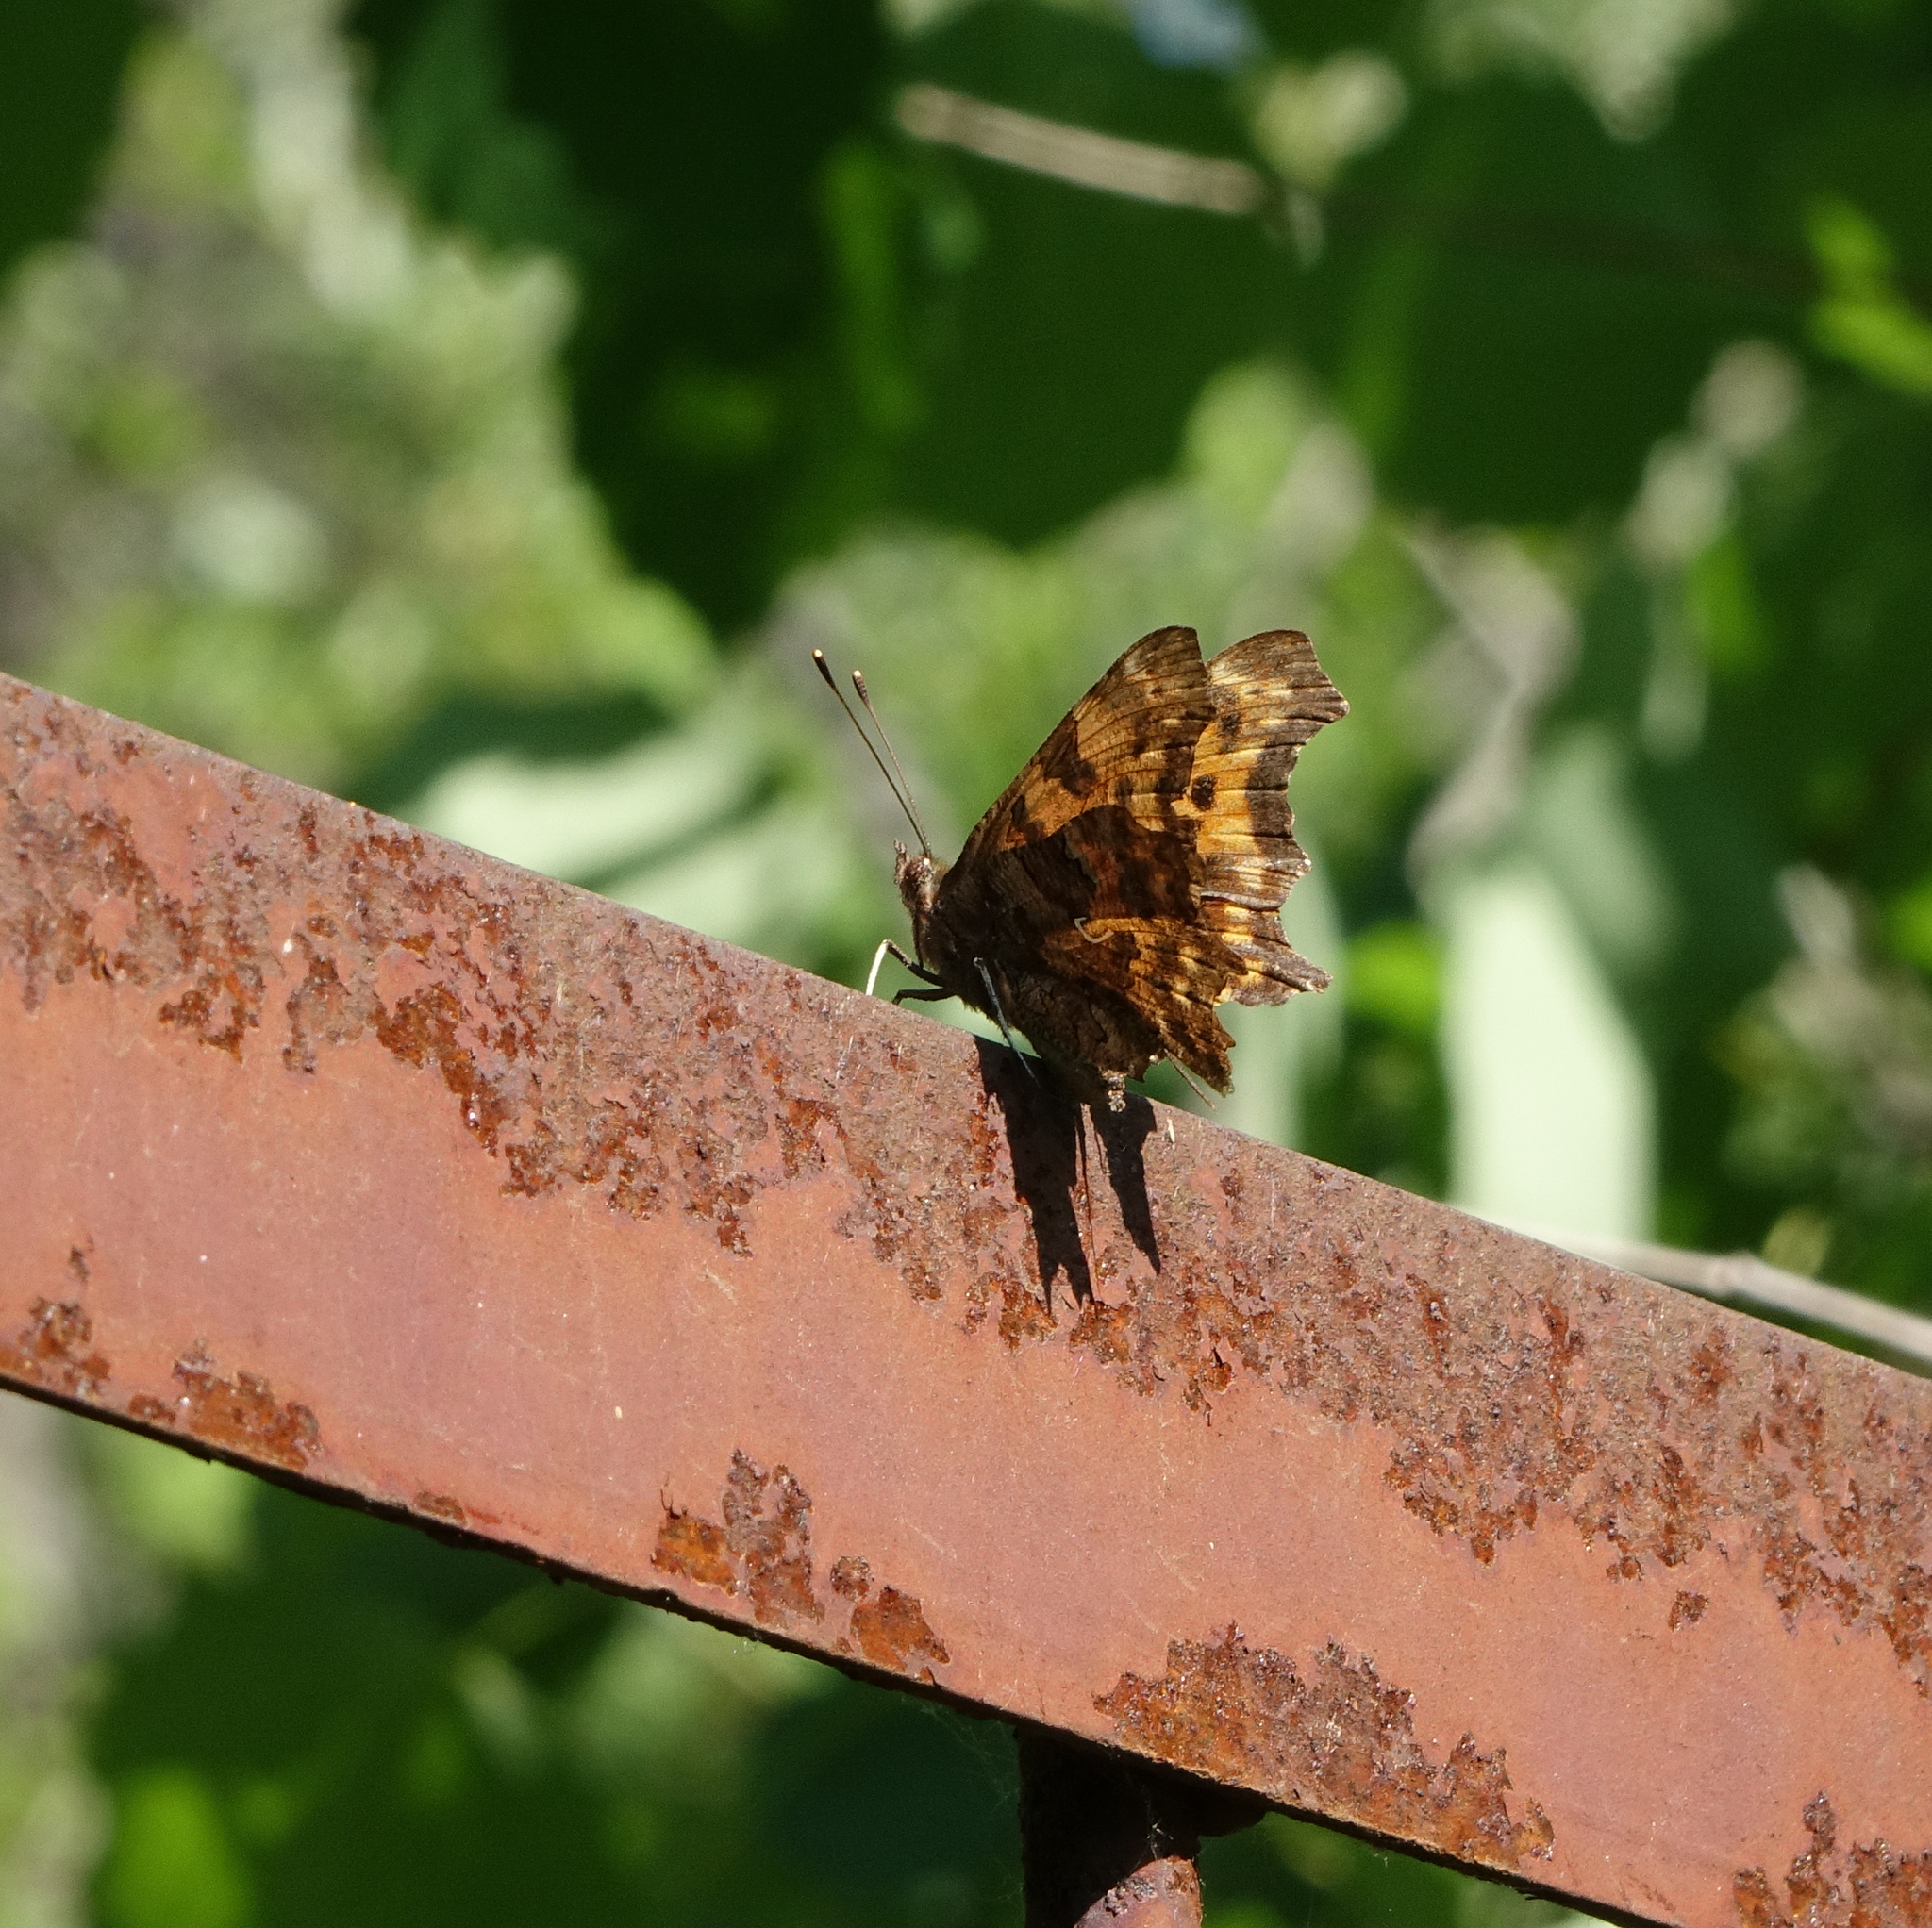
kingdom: Animalia
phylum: Arthropoda
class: Insecta
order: Lepidoptera
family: Nymphalidae
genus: Polygonia
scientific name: Polygonia c-album
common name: Comma
